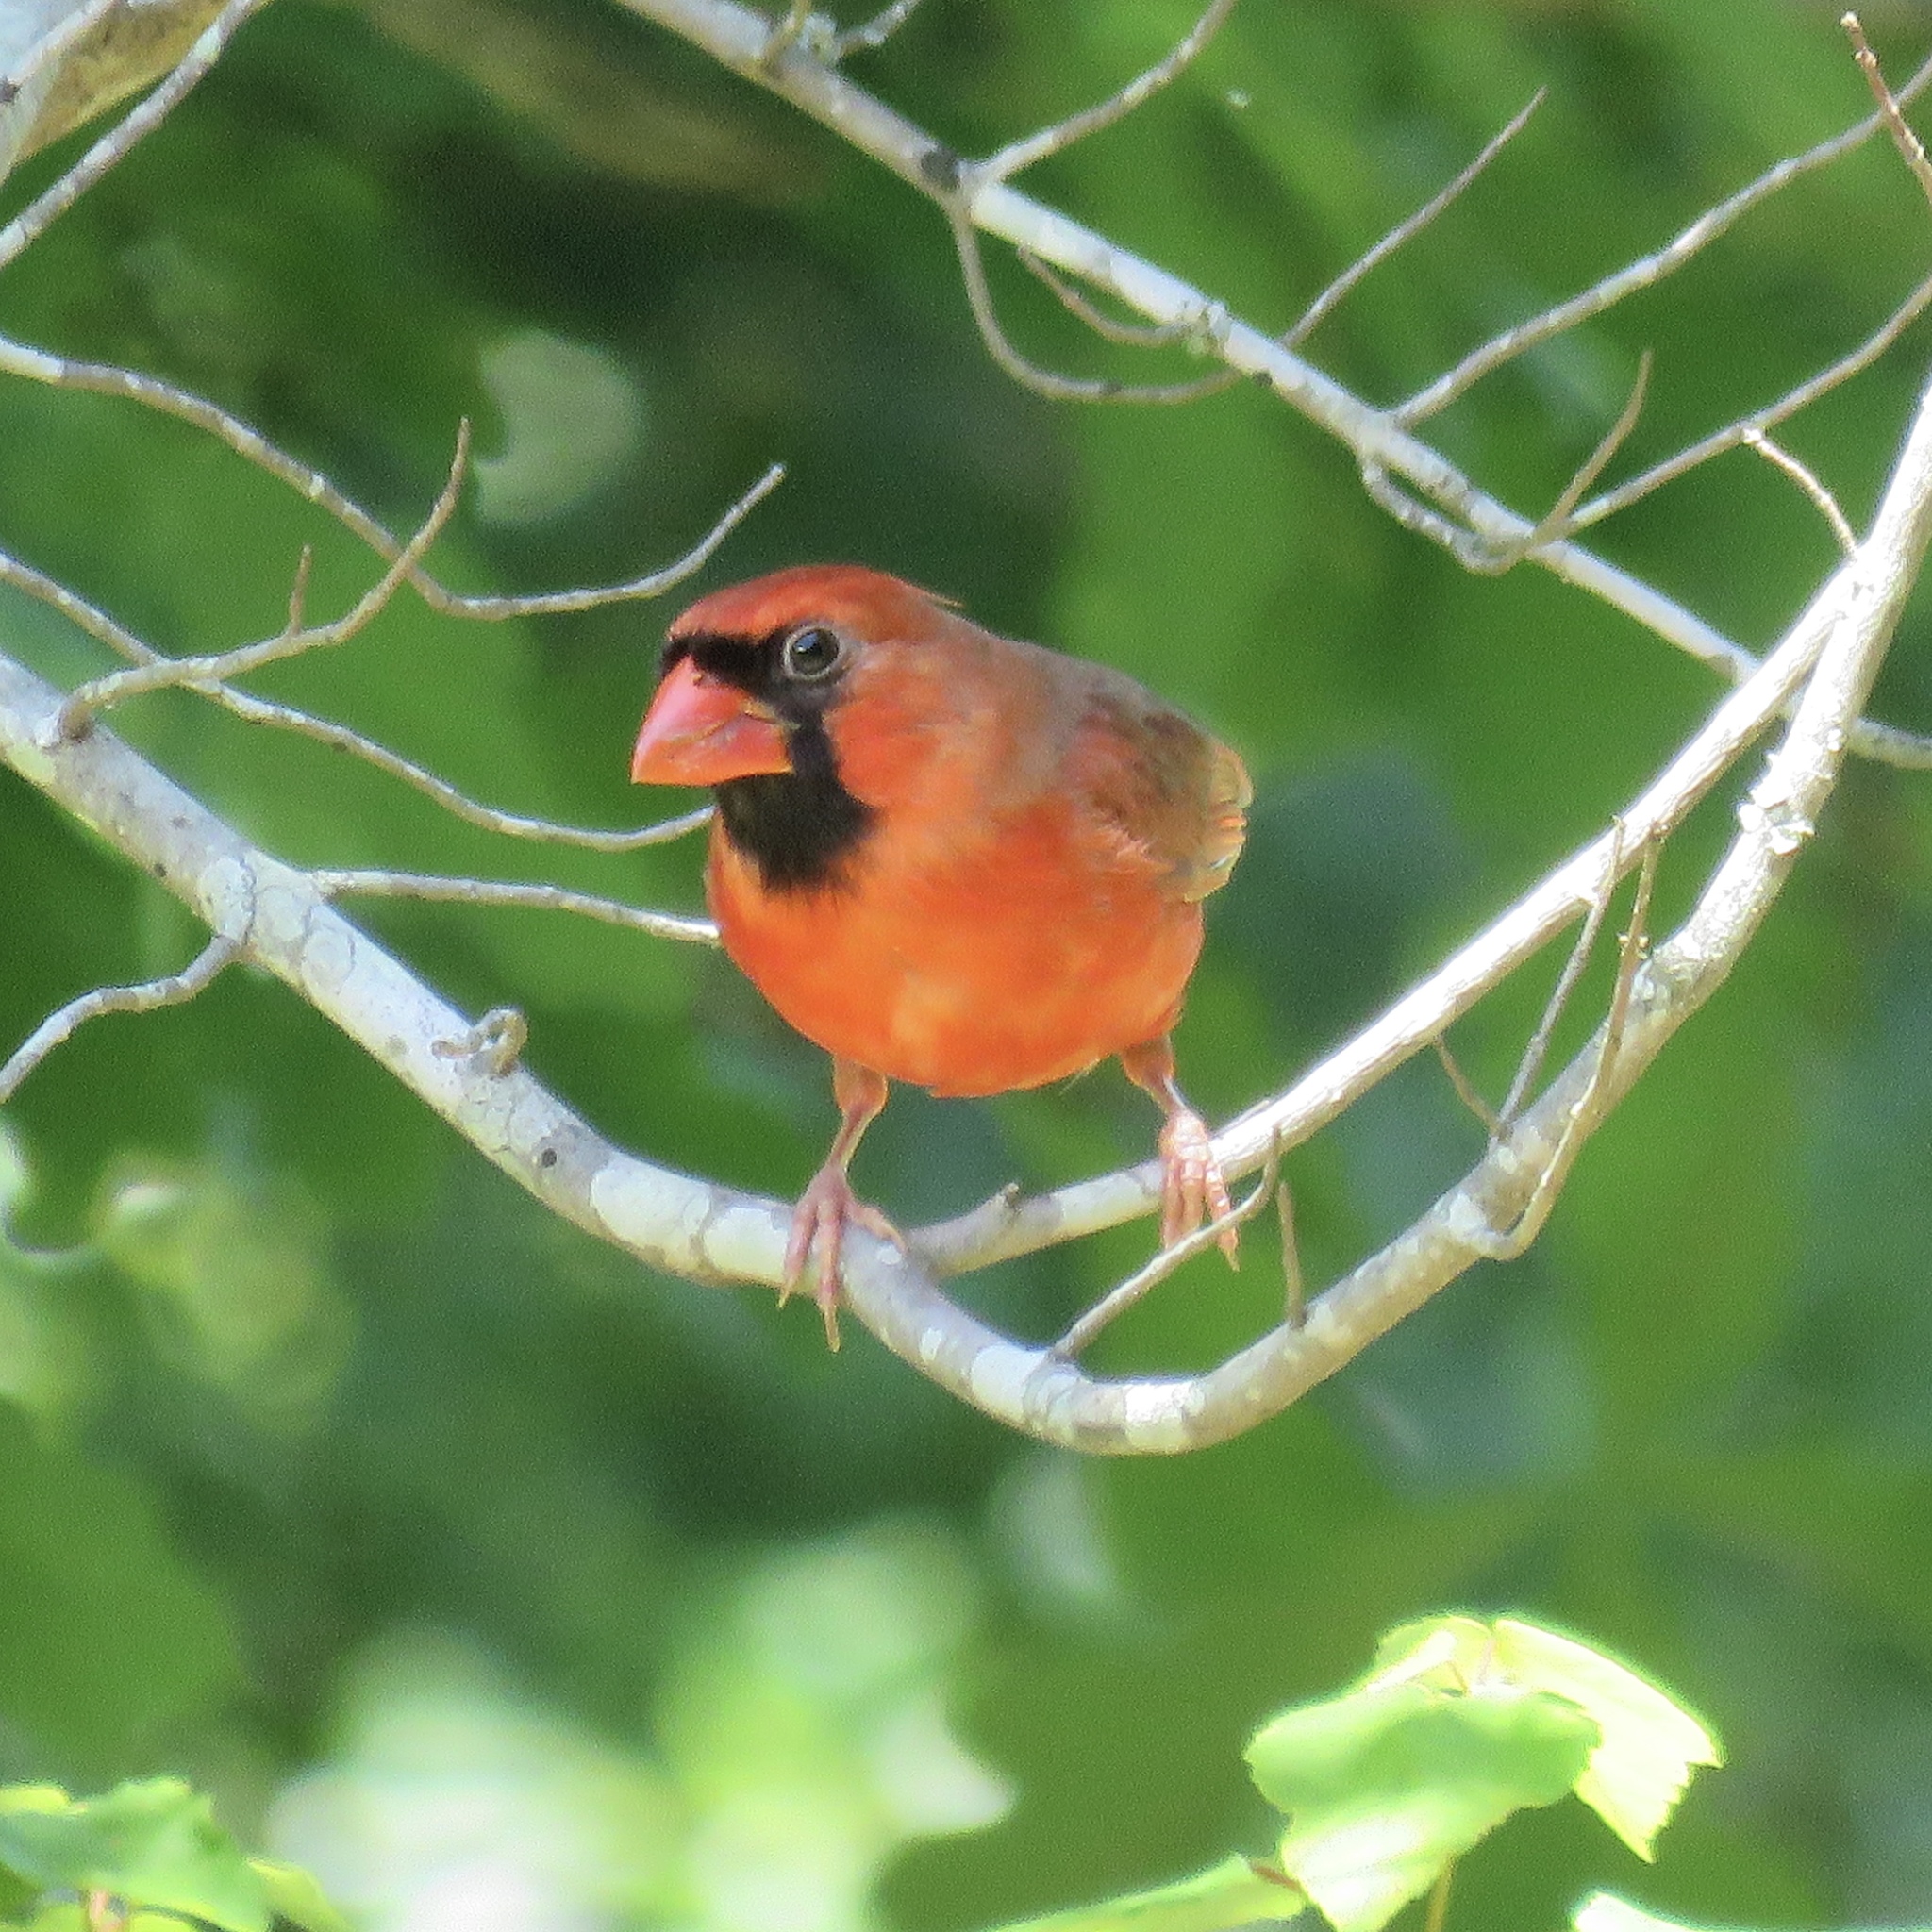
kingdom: Animalia
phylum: Chordata
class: Aves
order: Passeriformes
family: Cardinalidae
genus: Cardinalis
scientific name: Cardinalis cardinalis
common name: Northern cardinal
